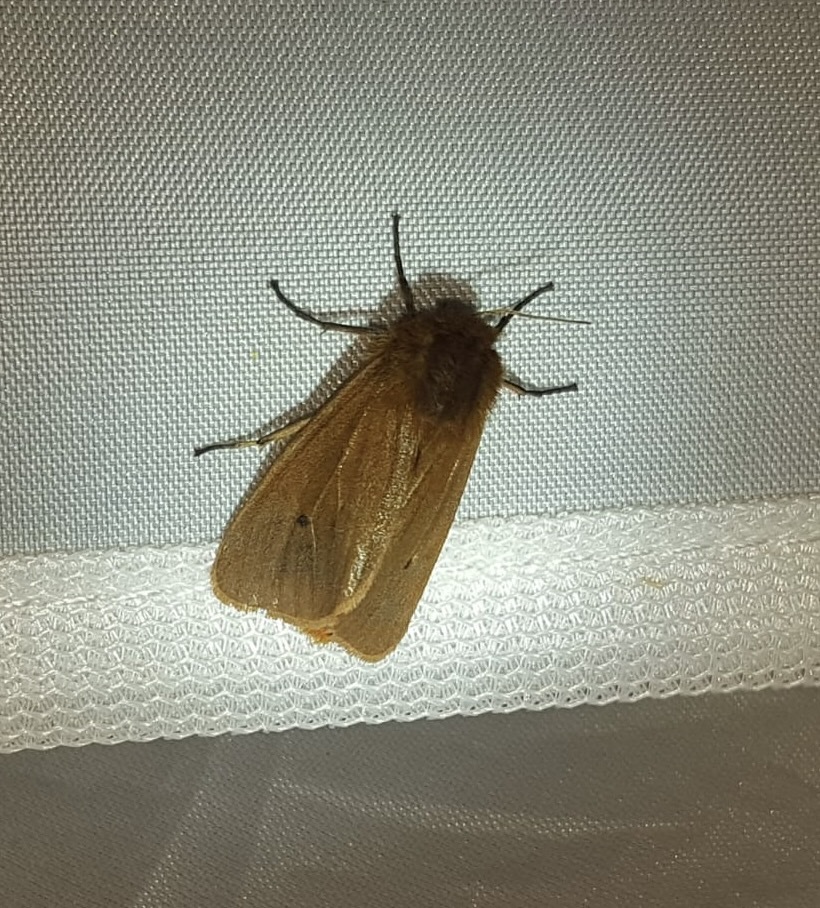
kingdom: Animalia
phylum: Arthropoda
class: Insecta
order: Lepidoptera
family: Erebidae
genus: Phragmatobia
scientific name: Phragmatobia fuliginosa
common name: Ruby tiger
